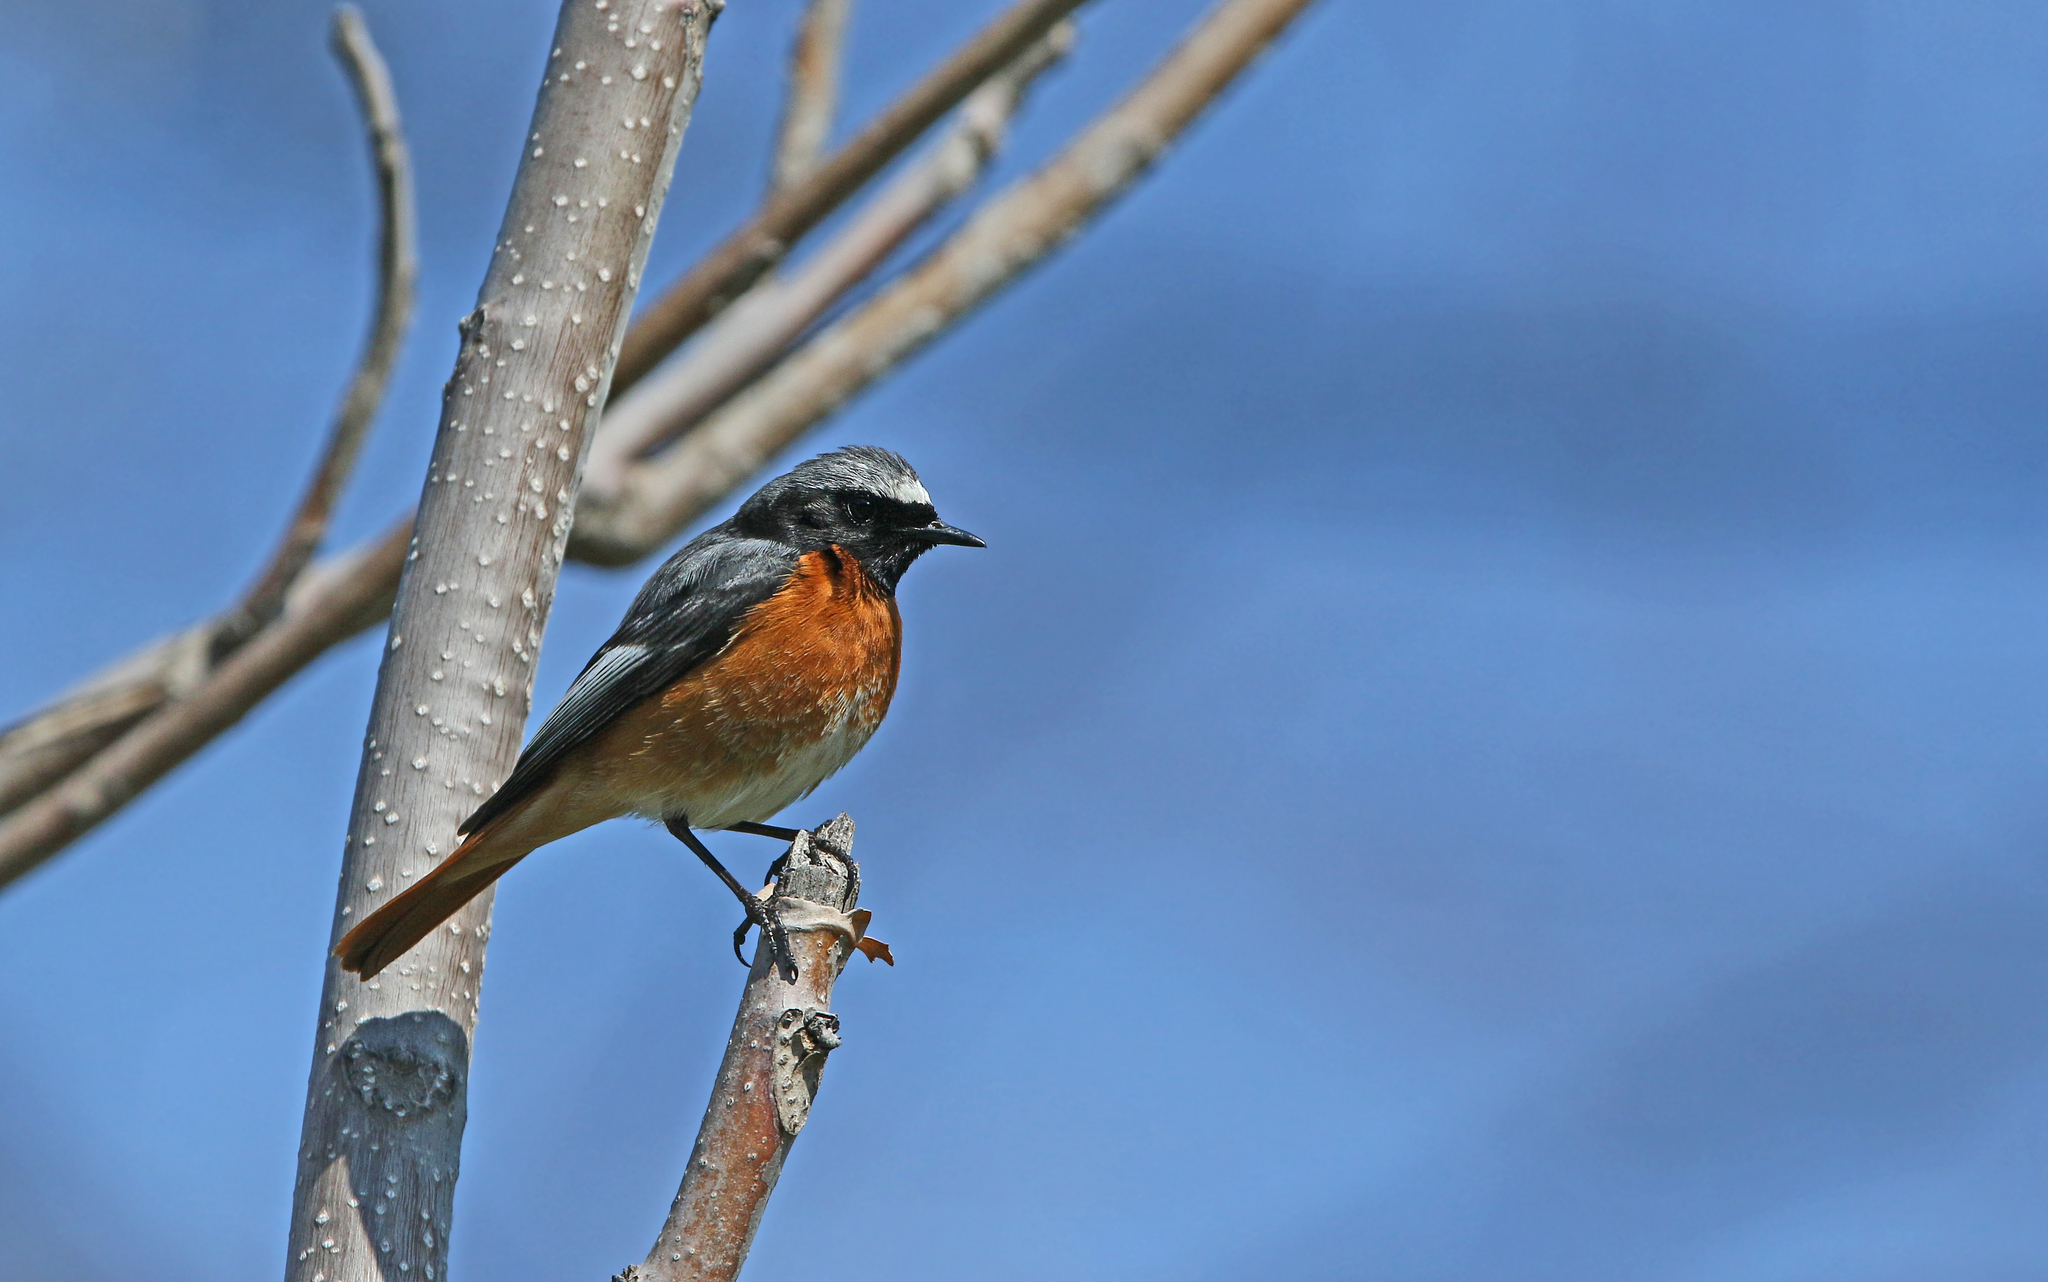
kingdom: Animalia
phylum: Chordata
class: Aves
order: Passeriformes
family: Muscicapidae
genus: Phoenicurus
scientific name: Phoenicurus phoenicurus
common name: Common redstart
